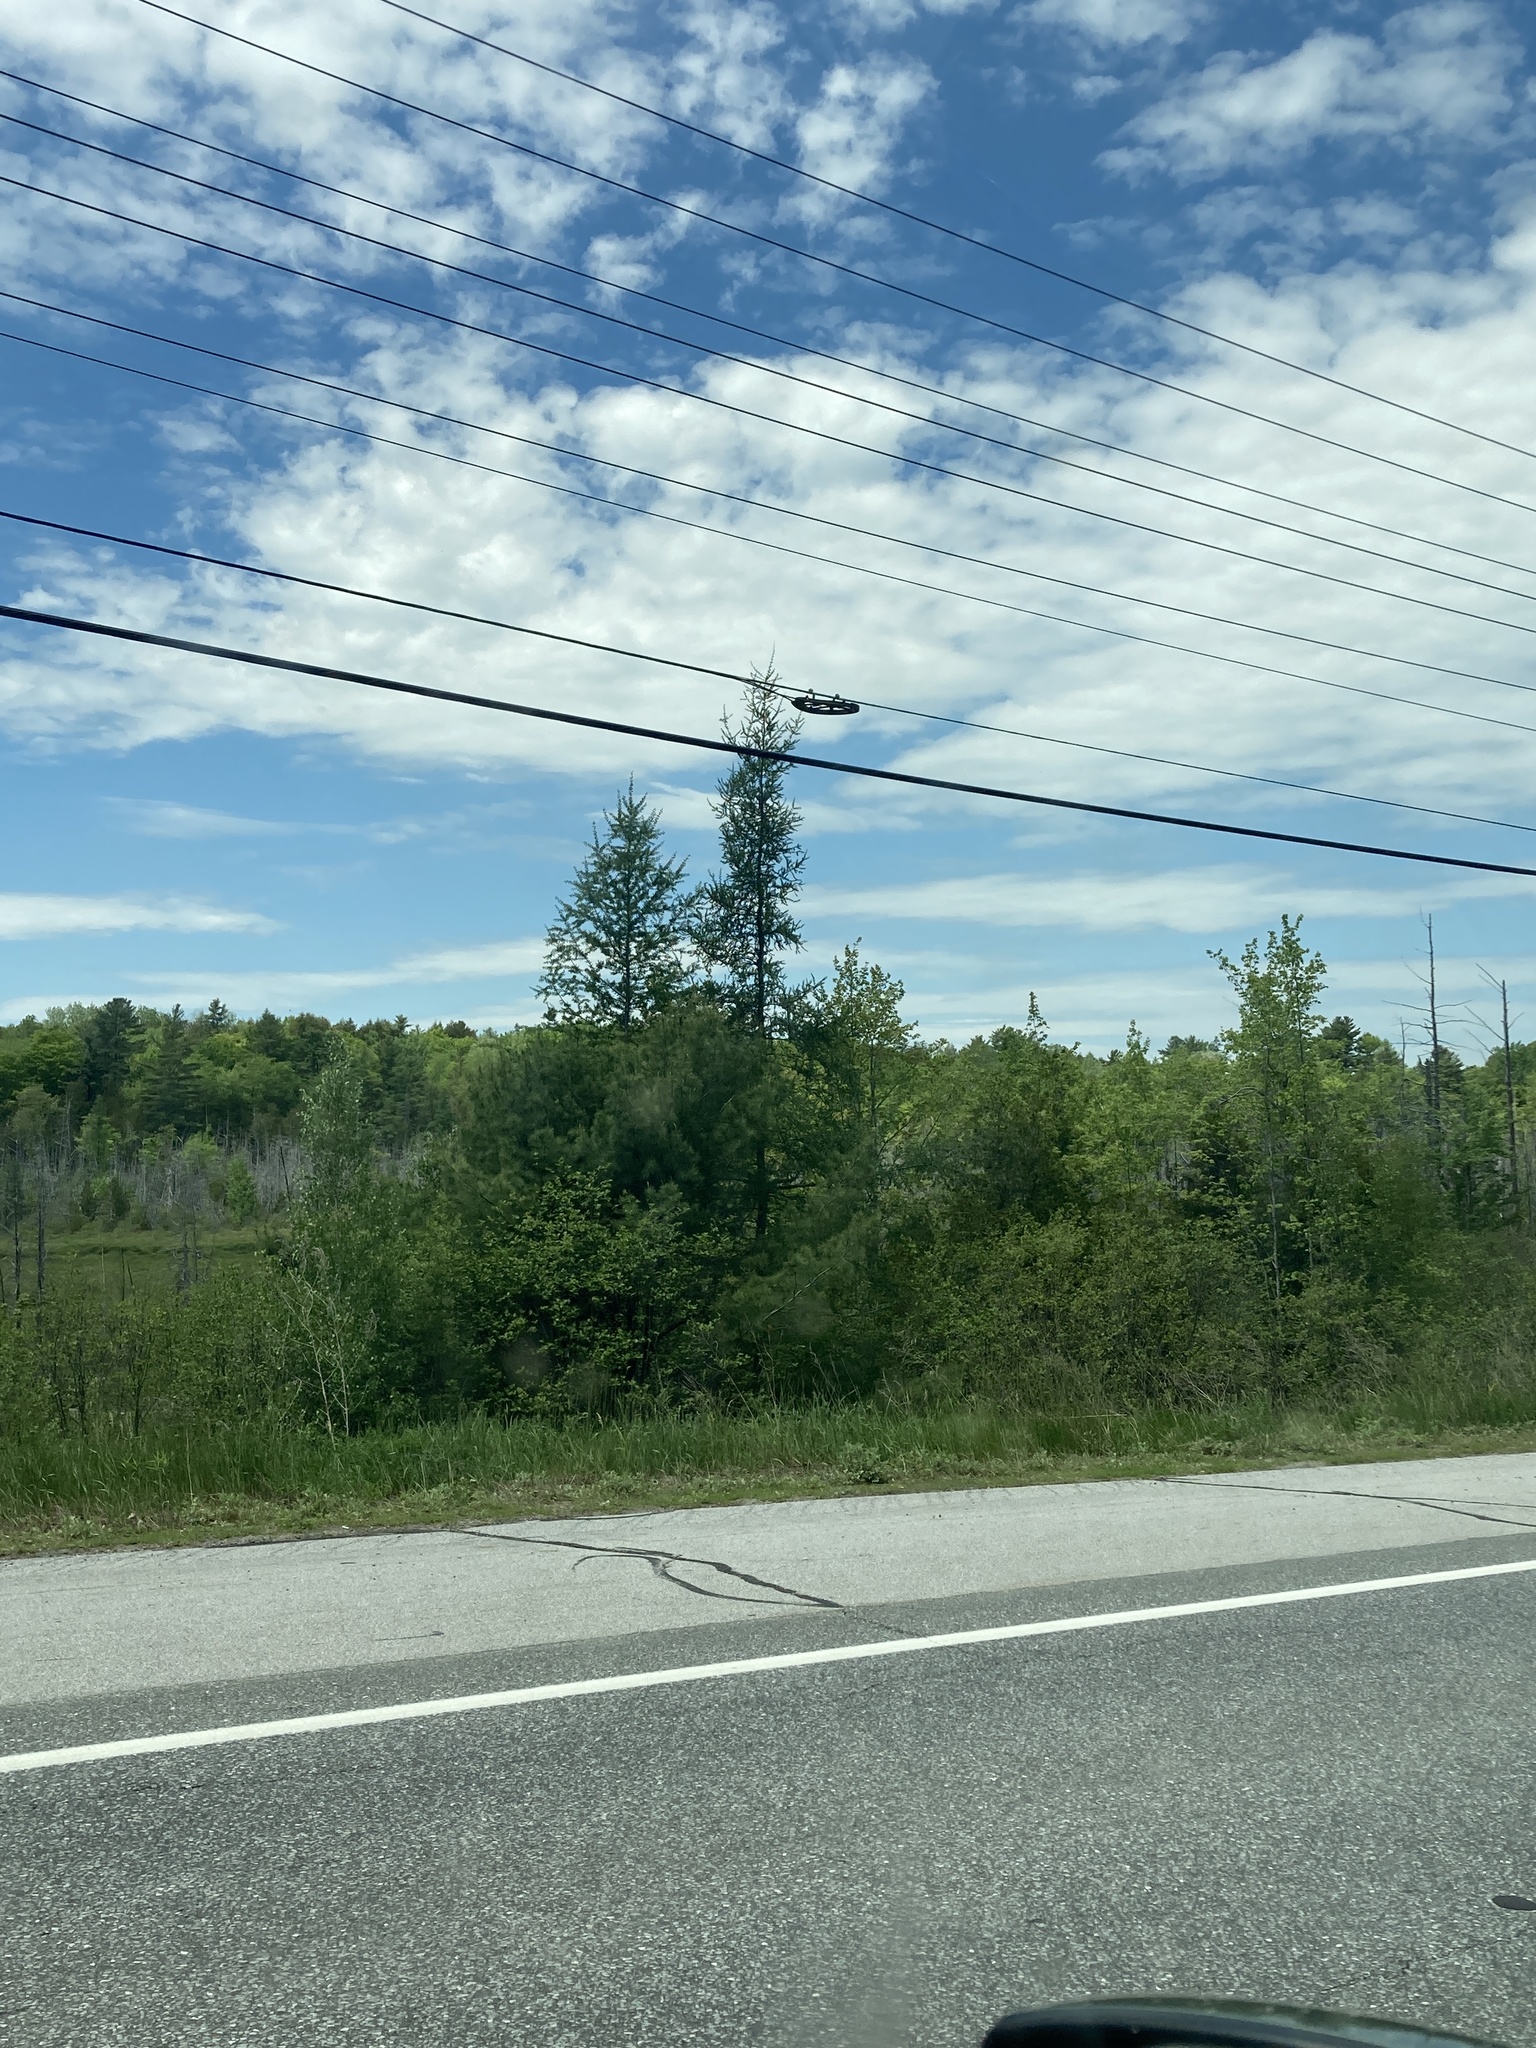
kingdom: Plantae
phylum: Tracheophyta
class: Pinopsida
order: Pinales
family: Pinaceae
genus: Larix
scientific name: Larix laricina
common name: American larch
